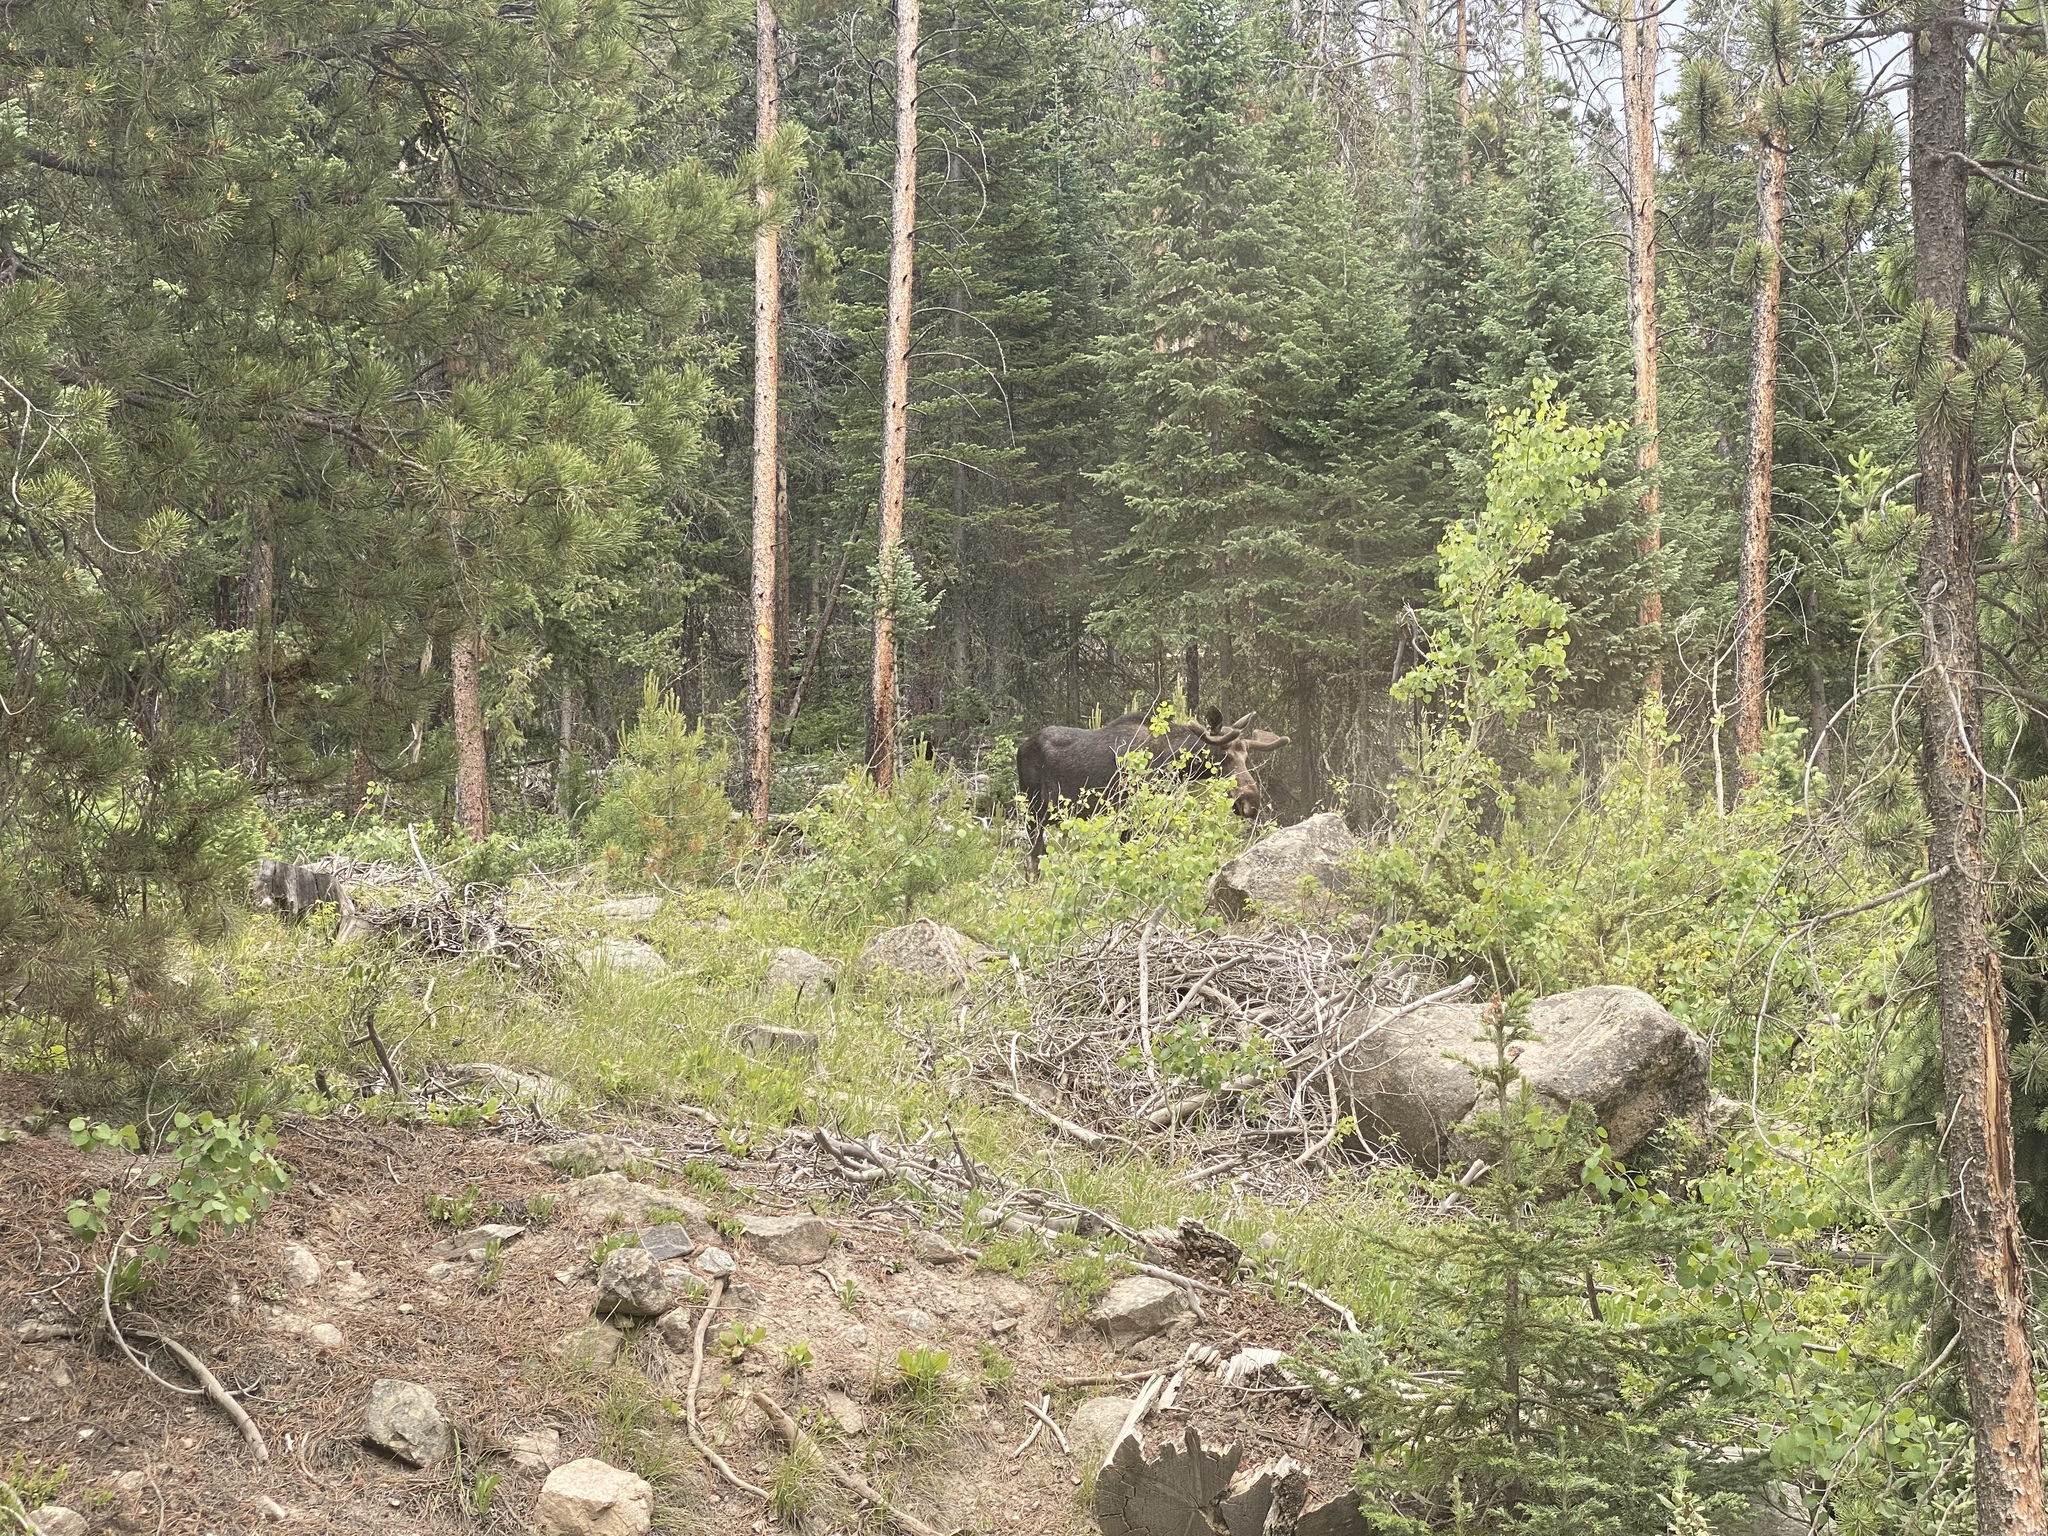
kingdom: Animalia
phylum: Chordata
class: Mammalia
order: Artiodactyla
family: Cervidae
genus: Alces
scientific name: Alces alces
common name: Moose
